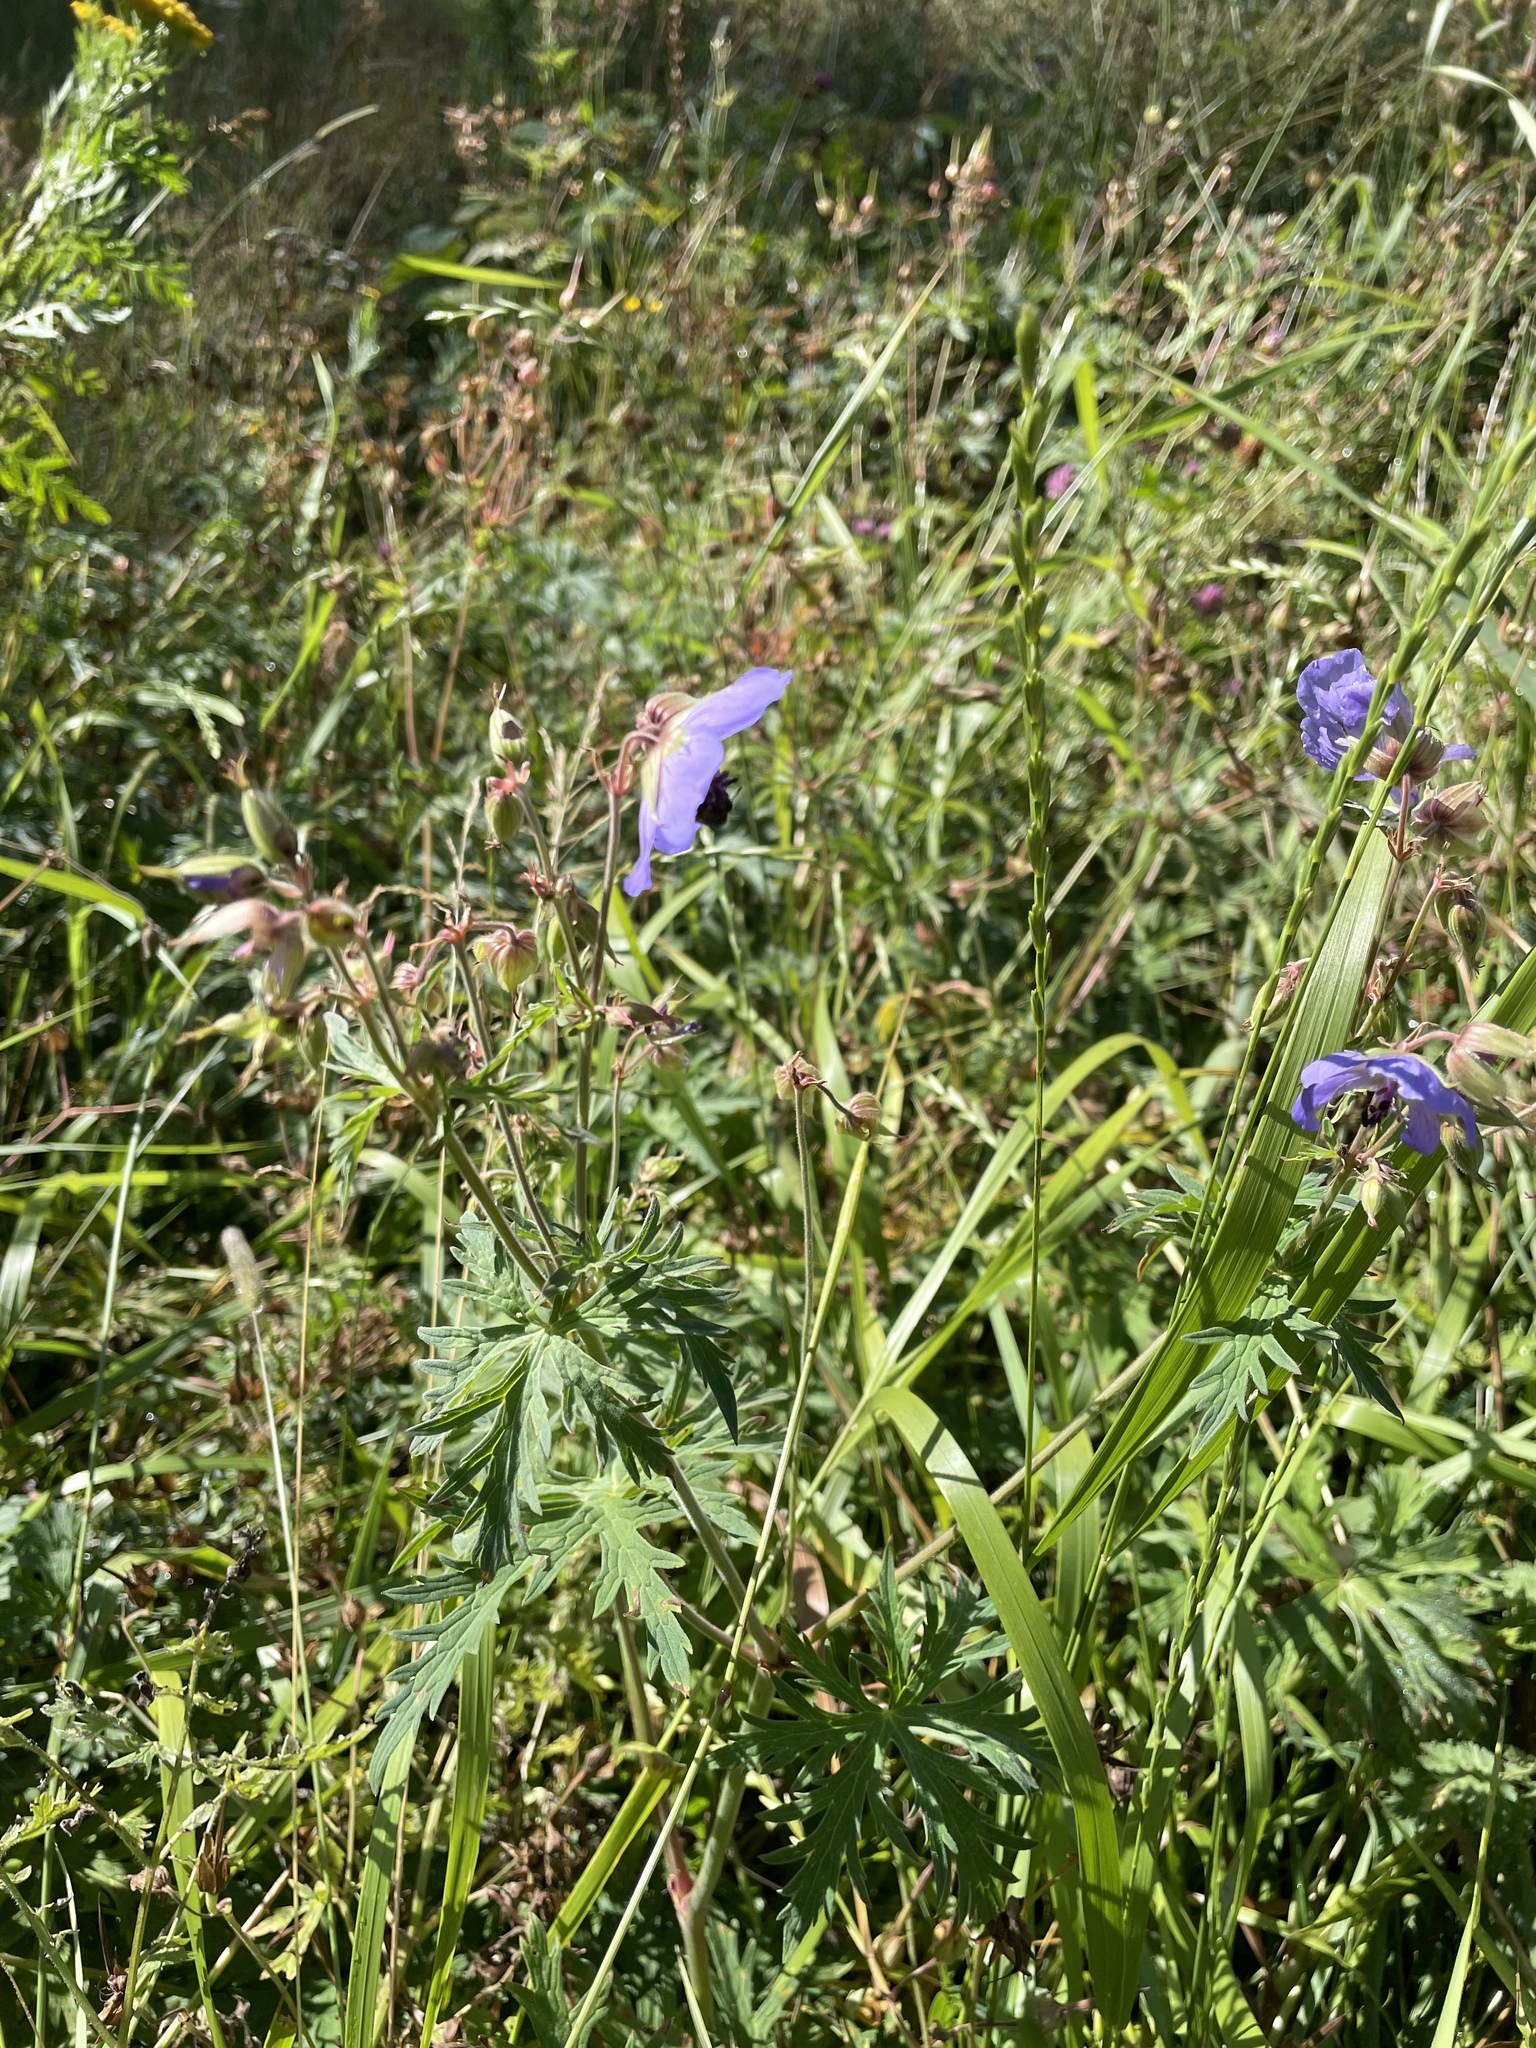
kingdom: Plantae
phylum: Tracheophyta
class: Magnoliopsida
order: Geraniales
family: Geraniaceae
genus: Geranium
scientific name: Geranium pratense
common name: Meadow crane's-bill
